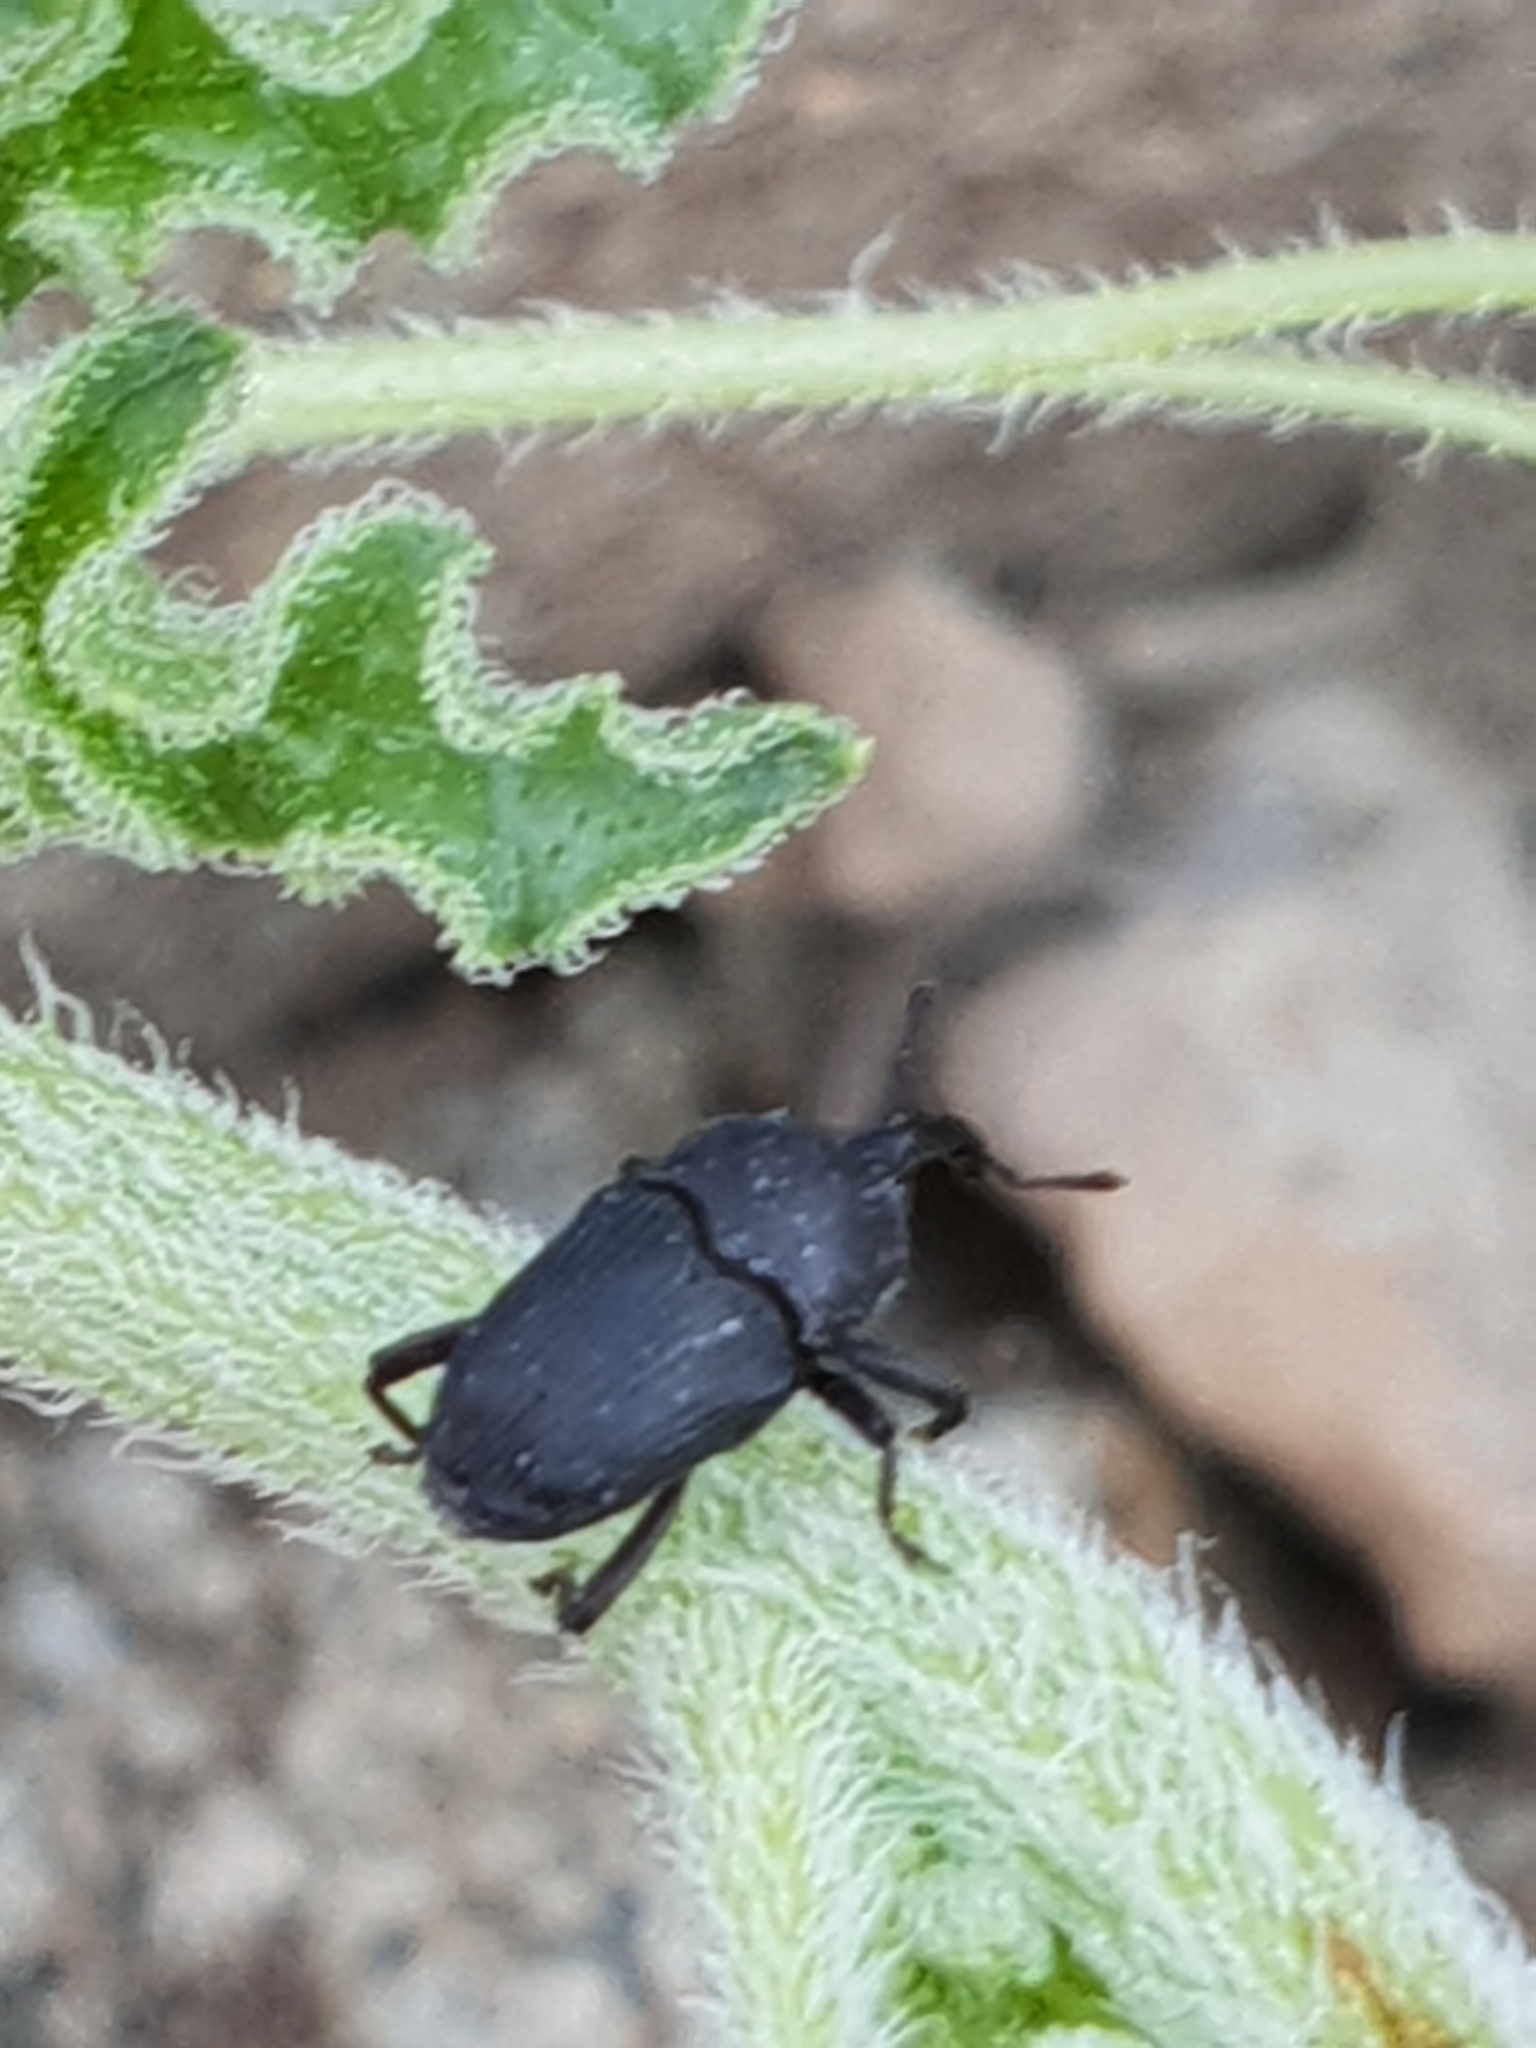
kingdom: Animalia
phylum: Arthropoda
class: Insecta
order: Coleoptera
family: Curculionidae
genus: Acythopeus
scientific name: Acythopeus curvirostris
